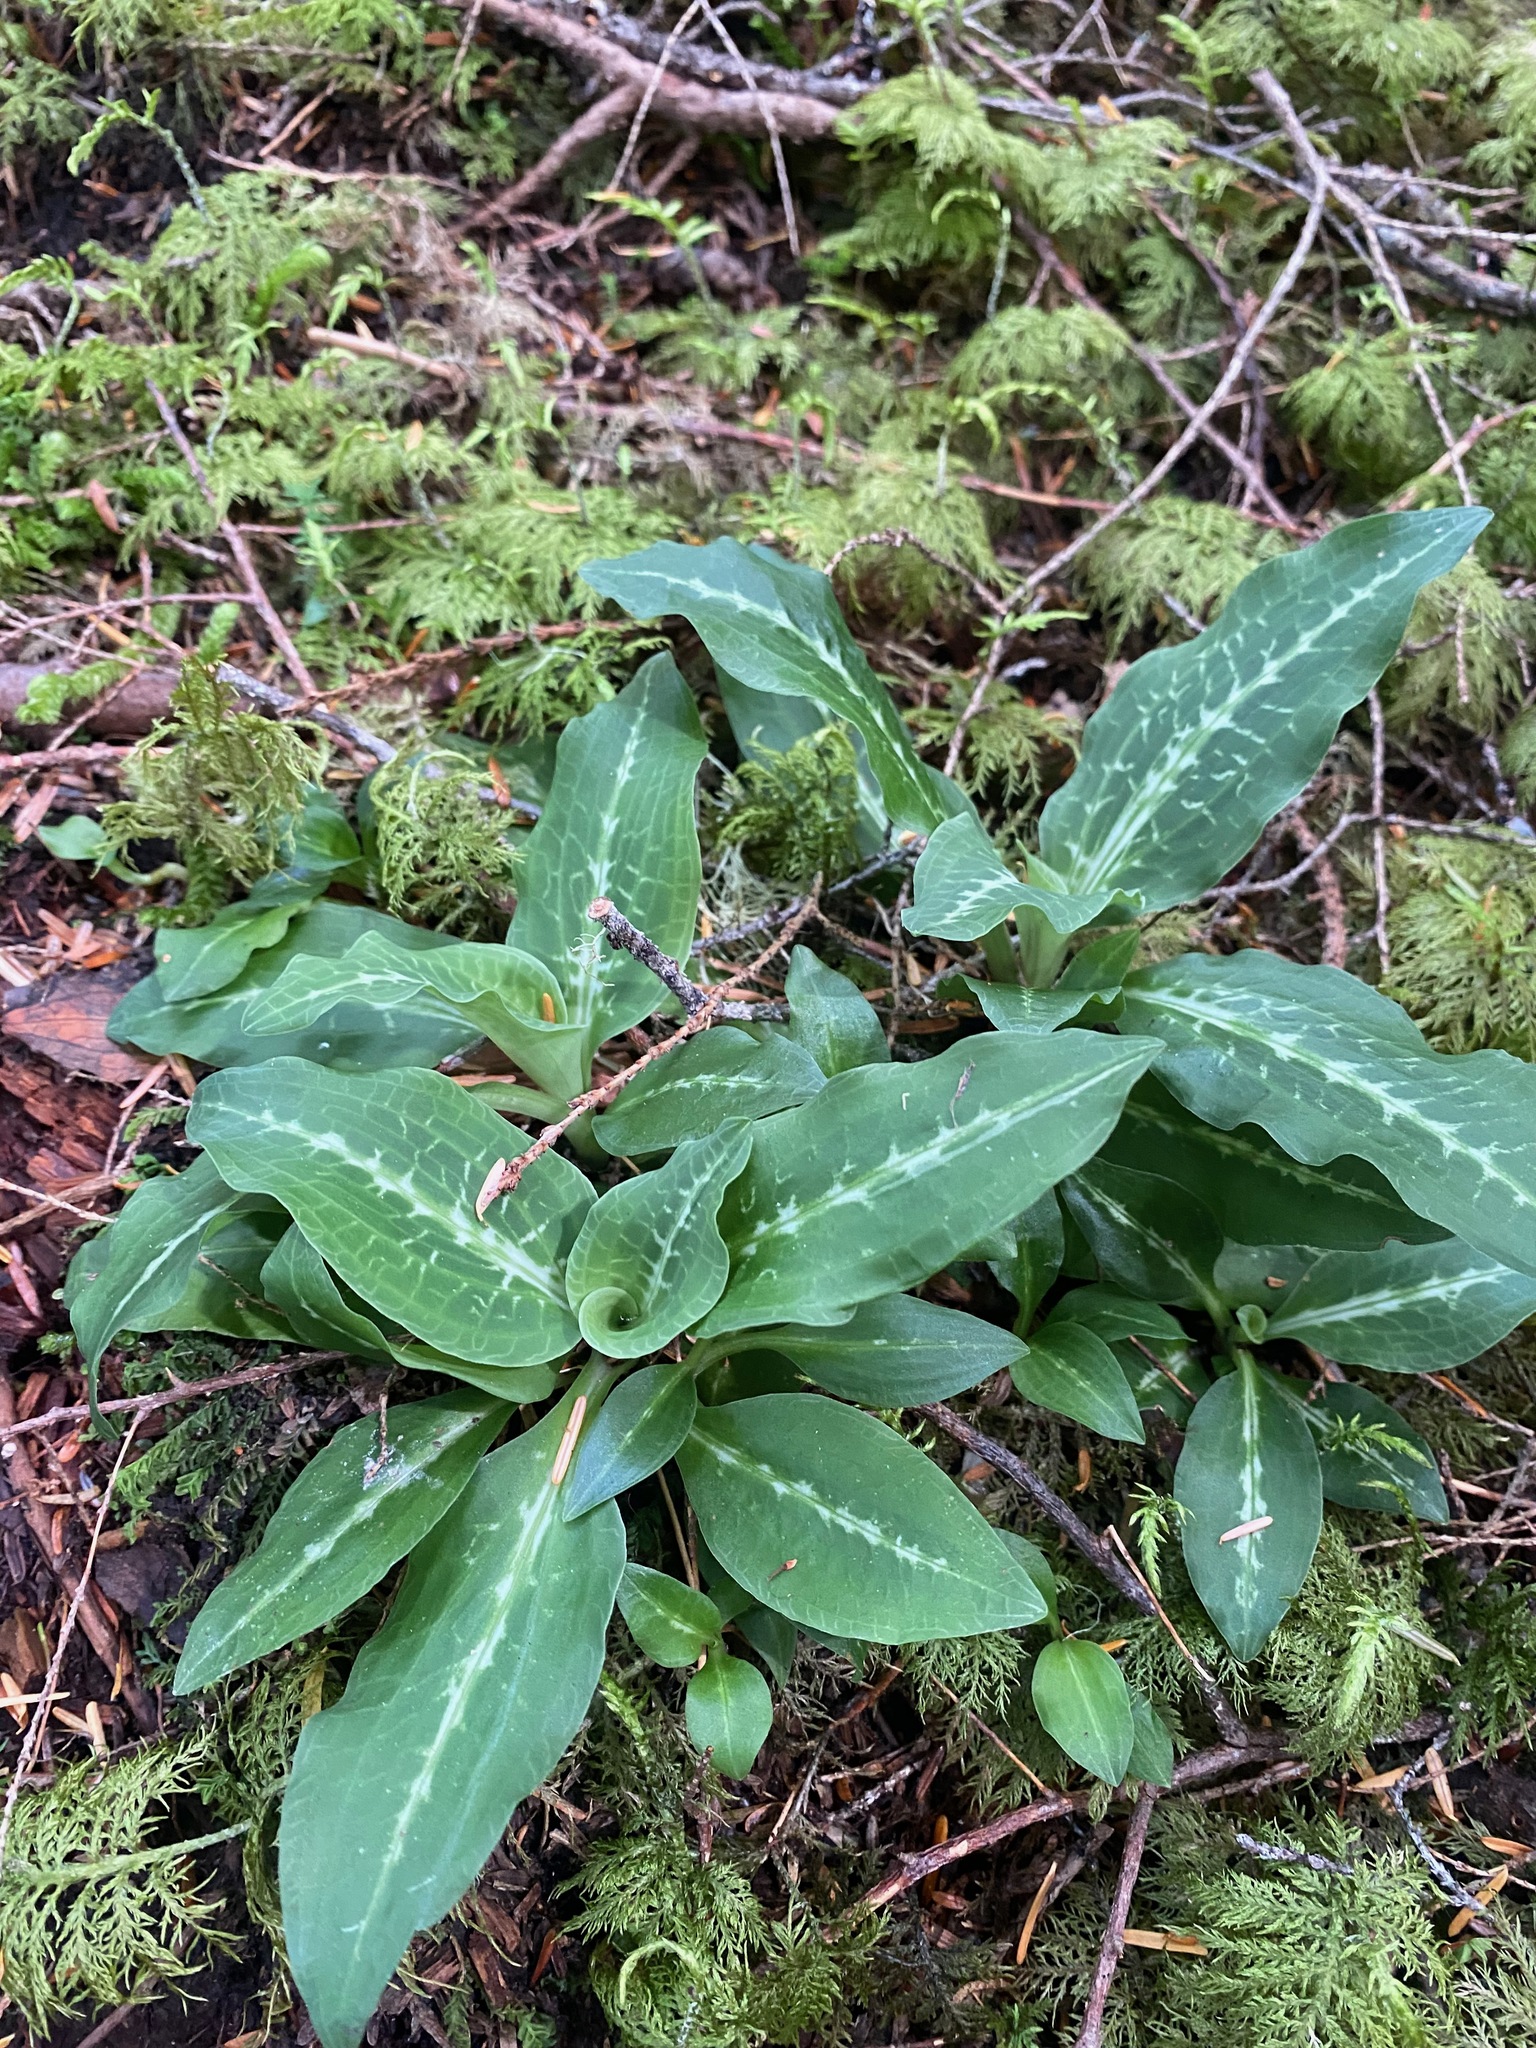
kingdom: Plantae
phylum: Tracheophyta
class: Liliopsida
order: Asparagales
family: Orchidaceae
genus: Goodyera
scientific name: Goodyera oblongifolia
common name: Giant rattlesnake-plantain
